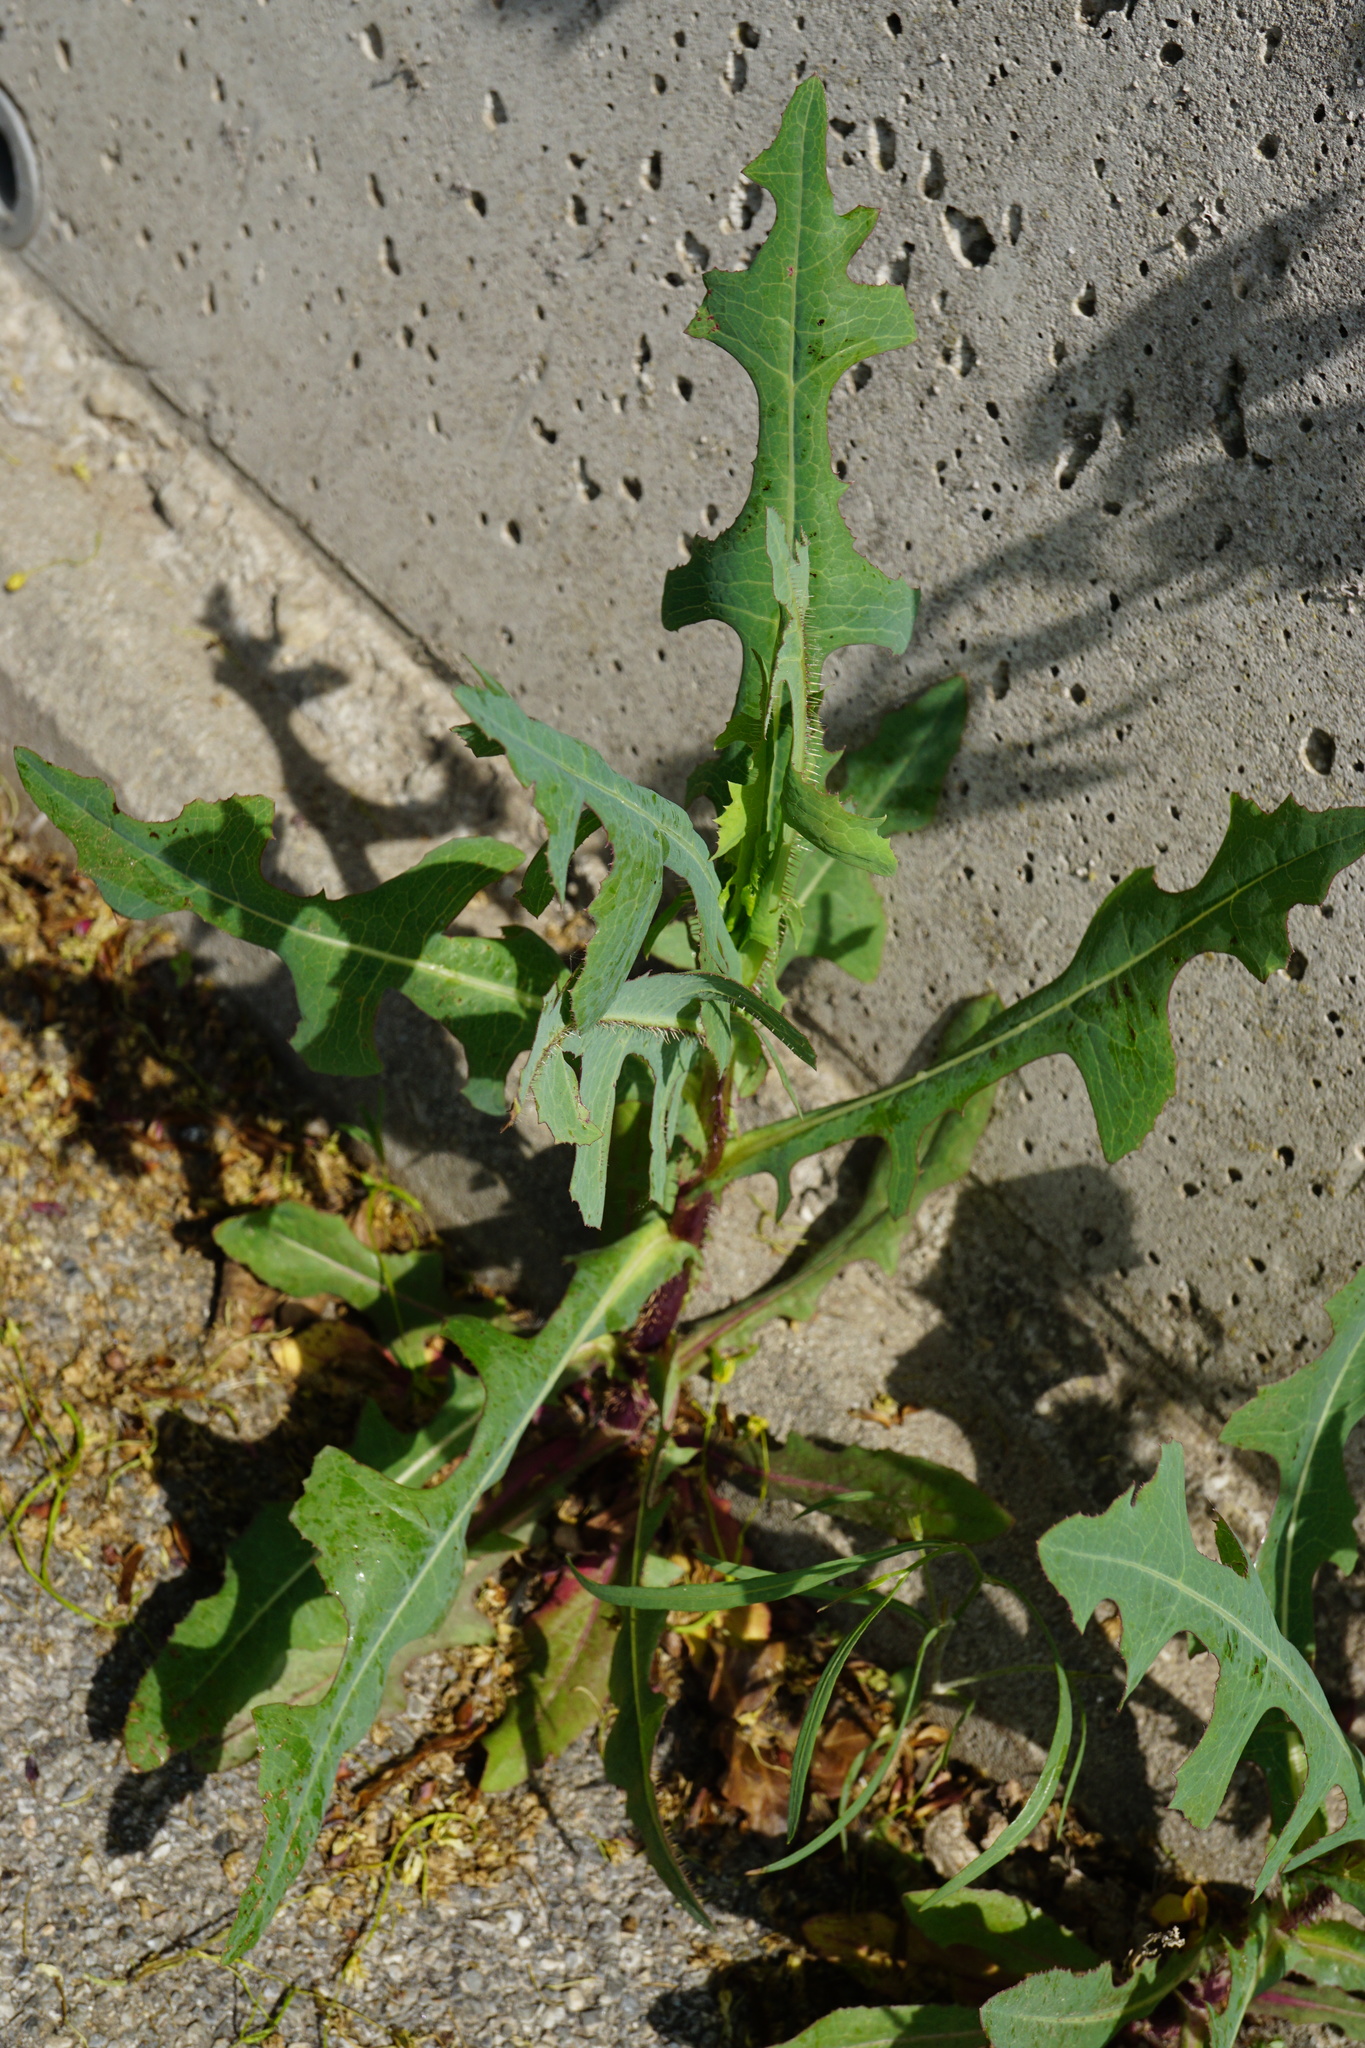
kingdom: Plantae
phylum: Tracheophyta
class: Magnoliopsida
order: Asterales
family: Asteraceae
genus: Lactuca
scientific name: Lactuca serriola
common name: Prickly lettuce
